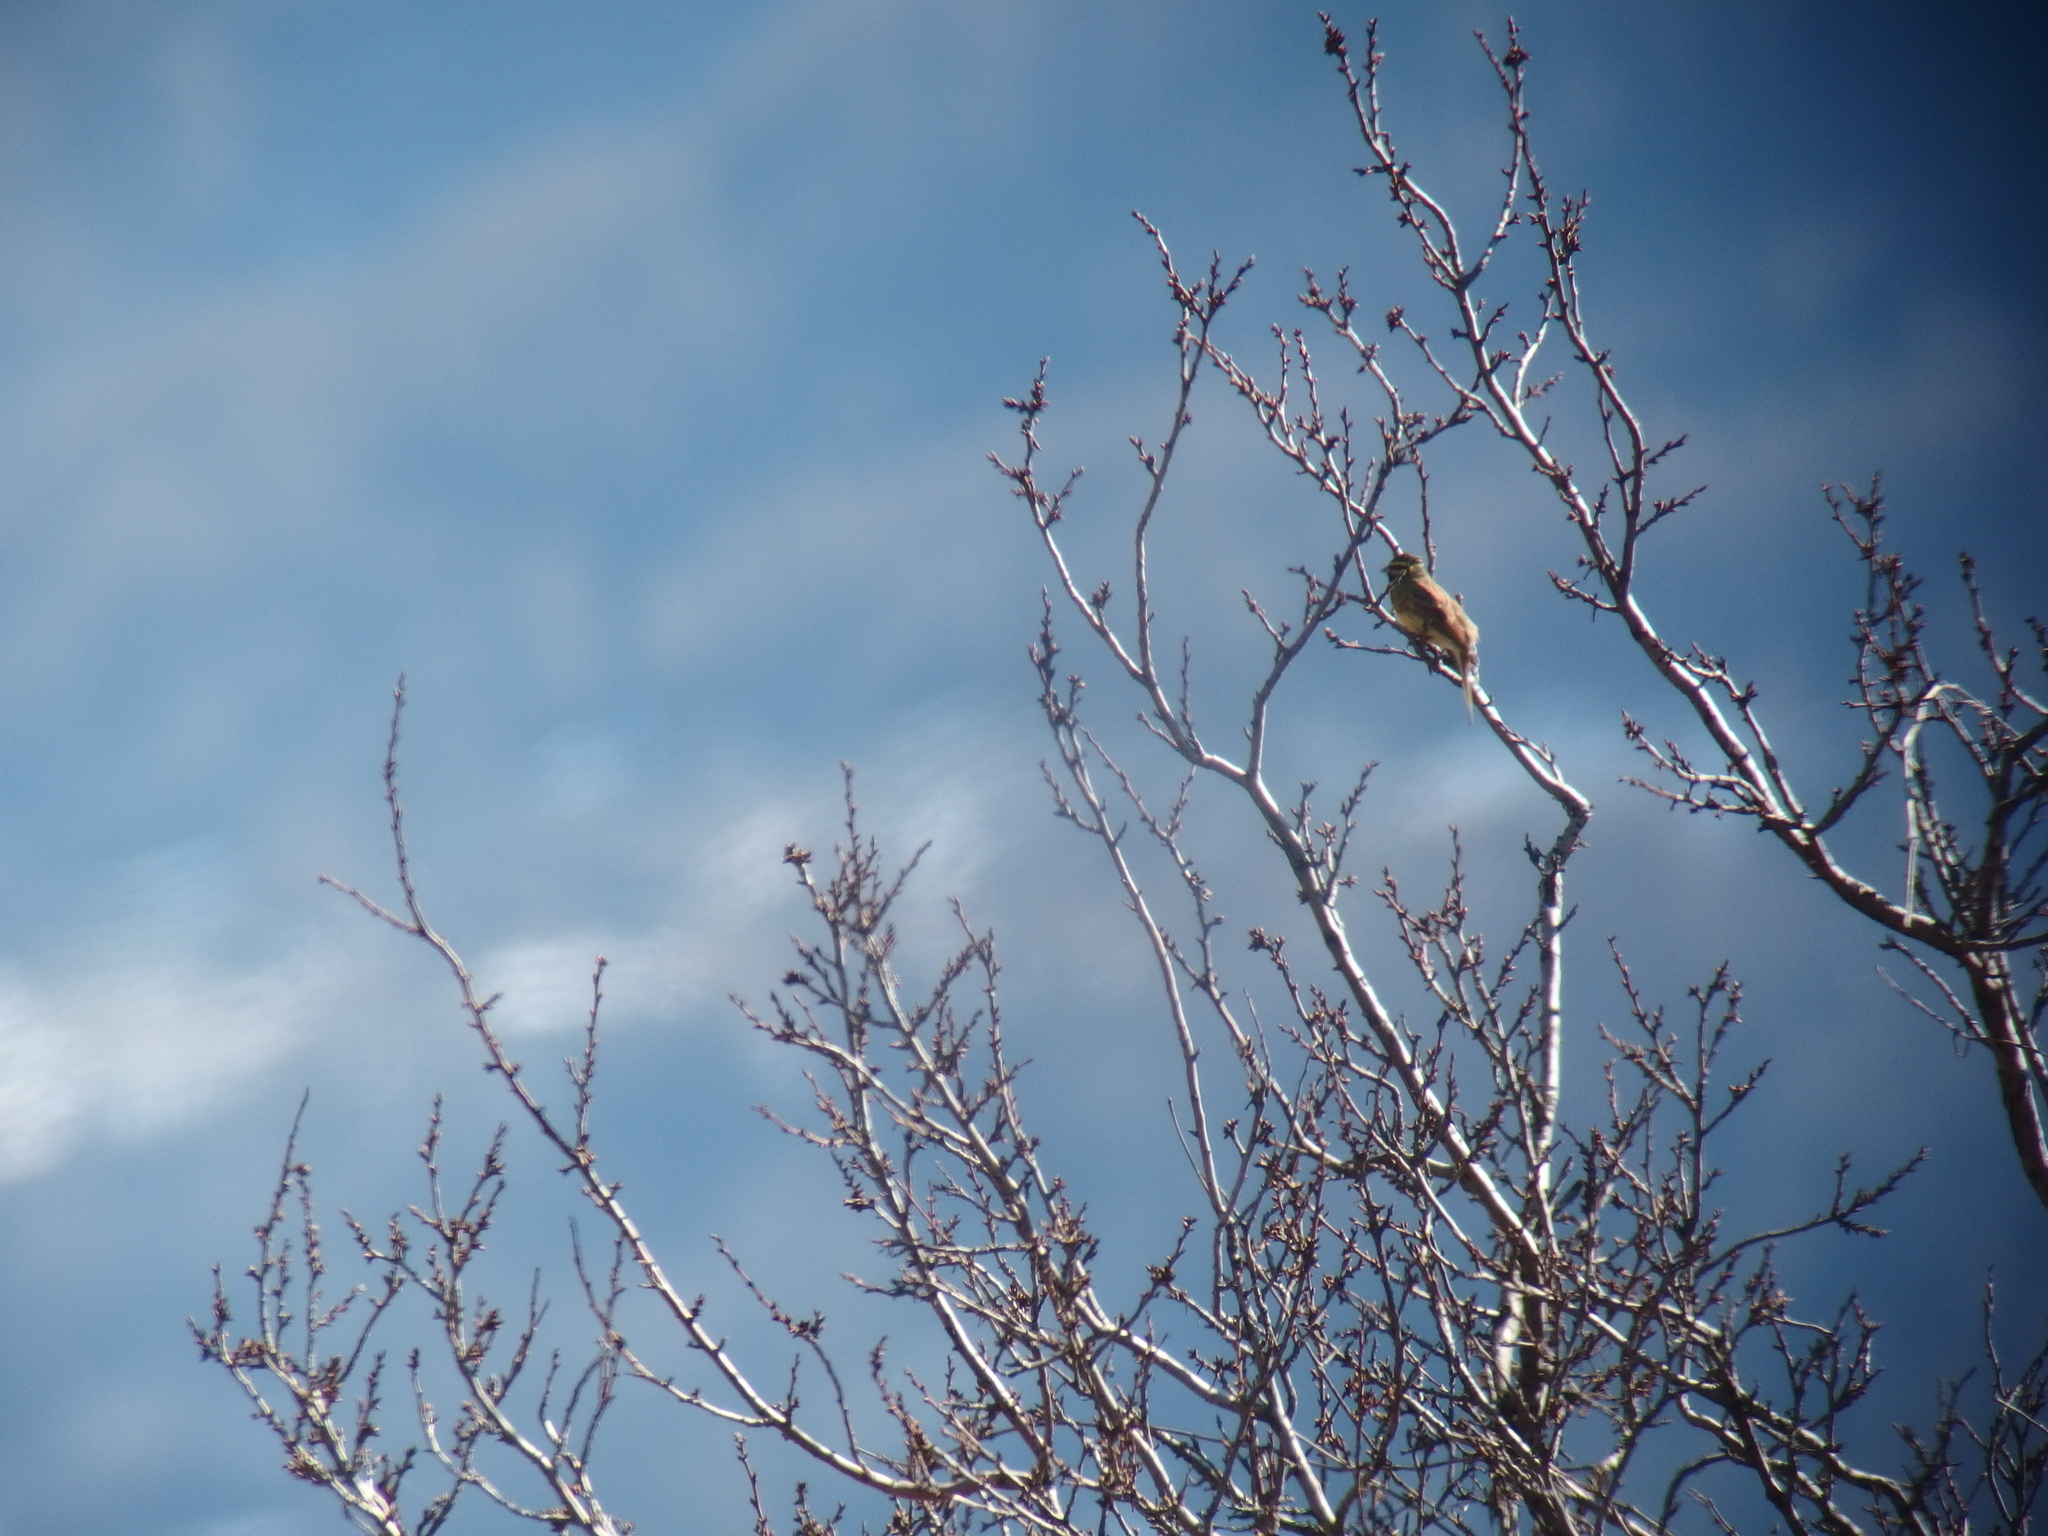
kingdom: Animalia
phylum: Chordata
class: Aves
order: Passeriformes
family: Emberizidae
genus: Emberiza
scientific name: Emberiza cirlus
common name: Cirl bunting
